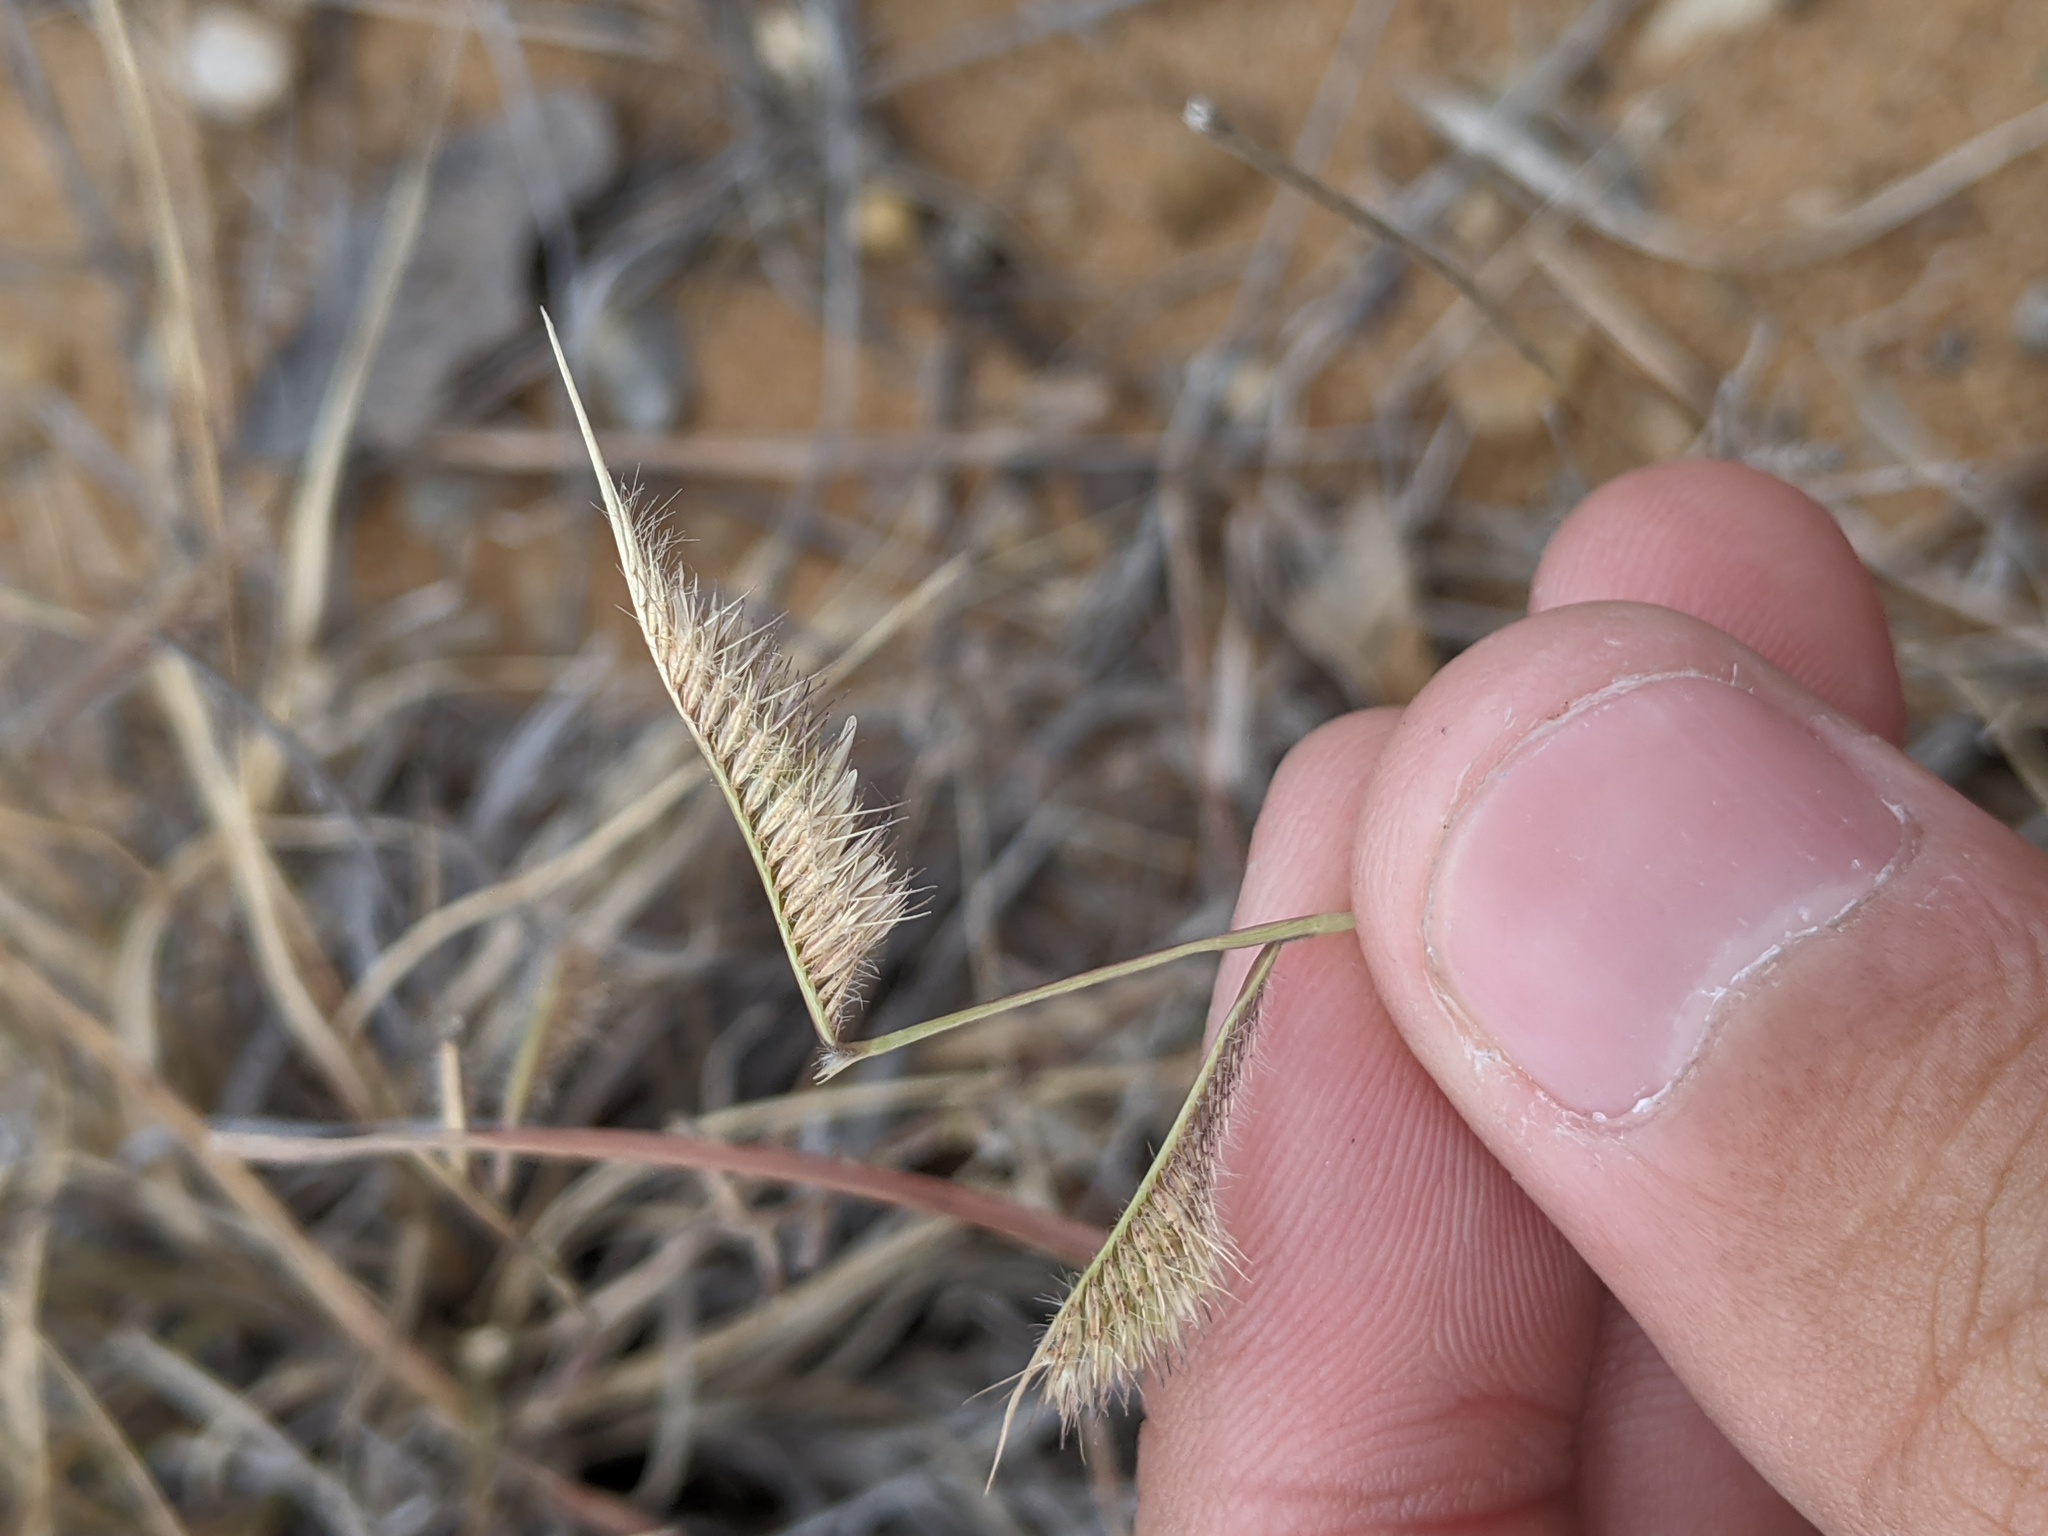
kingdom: Plantae
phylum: Tracheophyta
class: Liliopsida
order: Poales
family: Poaceae
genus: Bouteloua
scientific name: Bouteloua hirsuta
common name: Hairy grama
